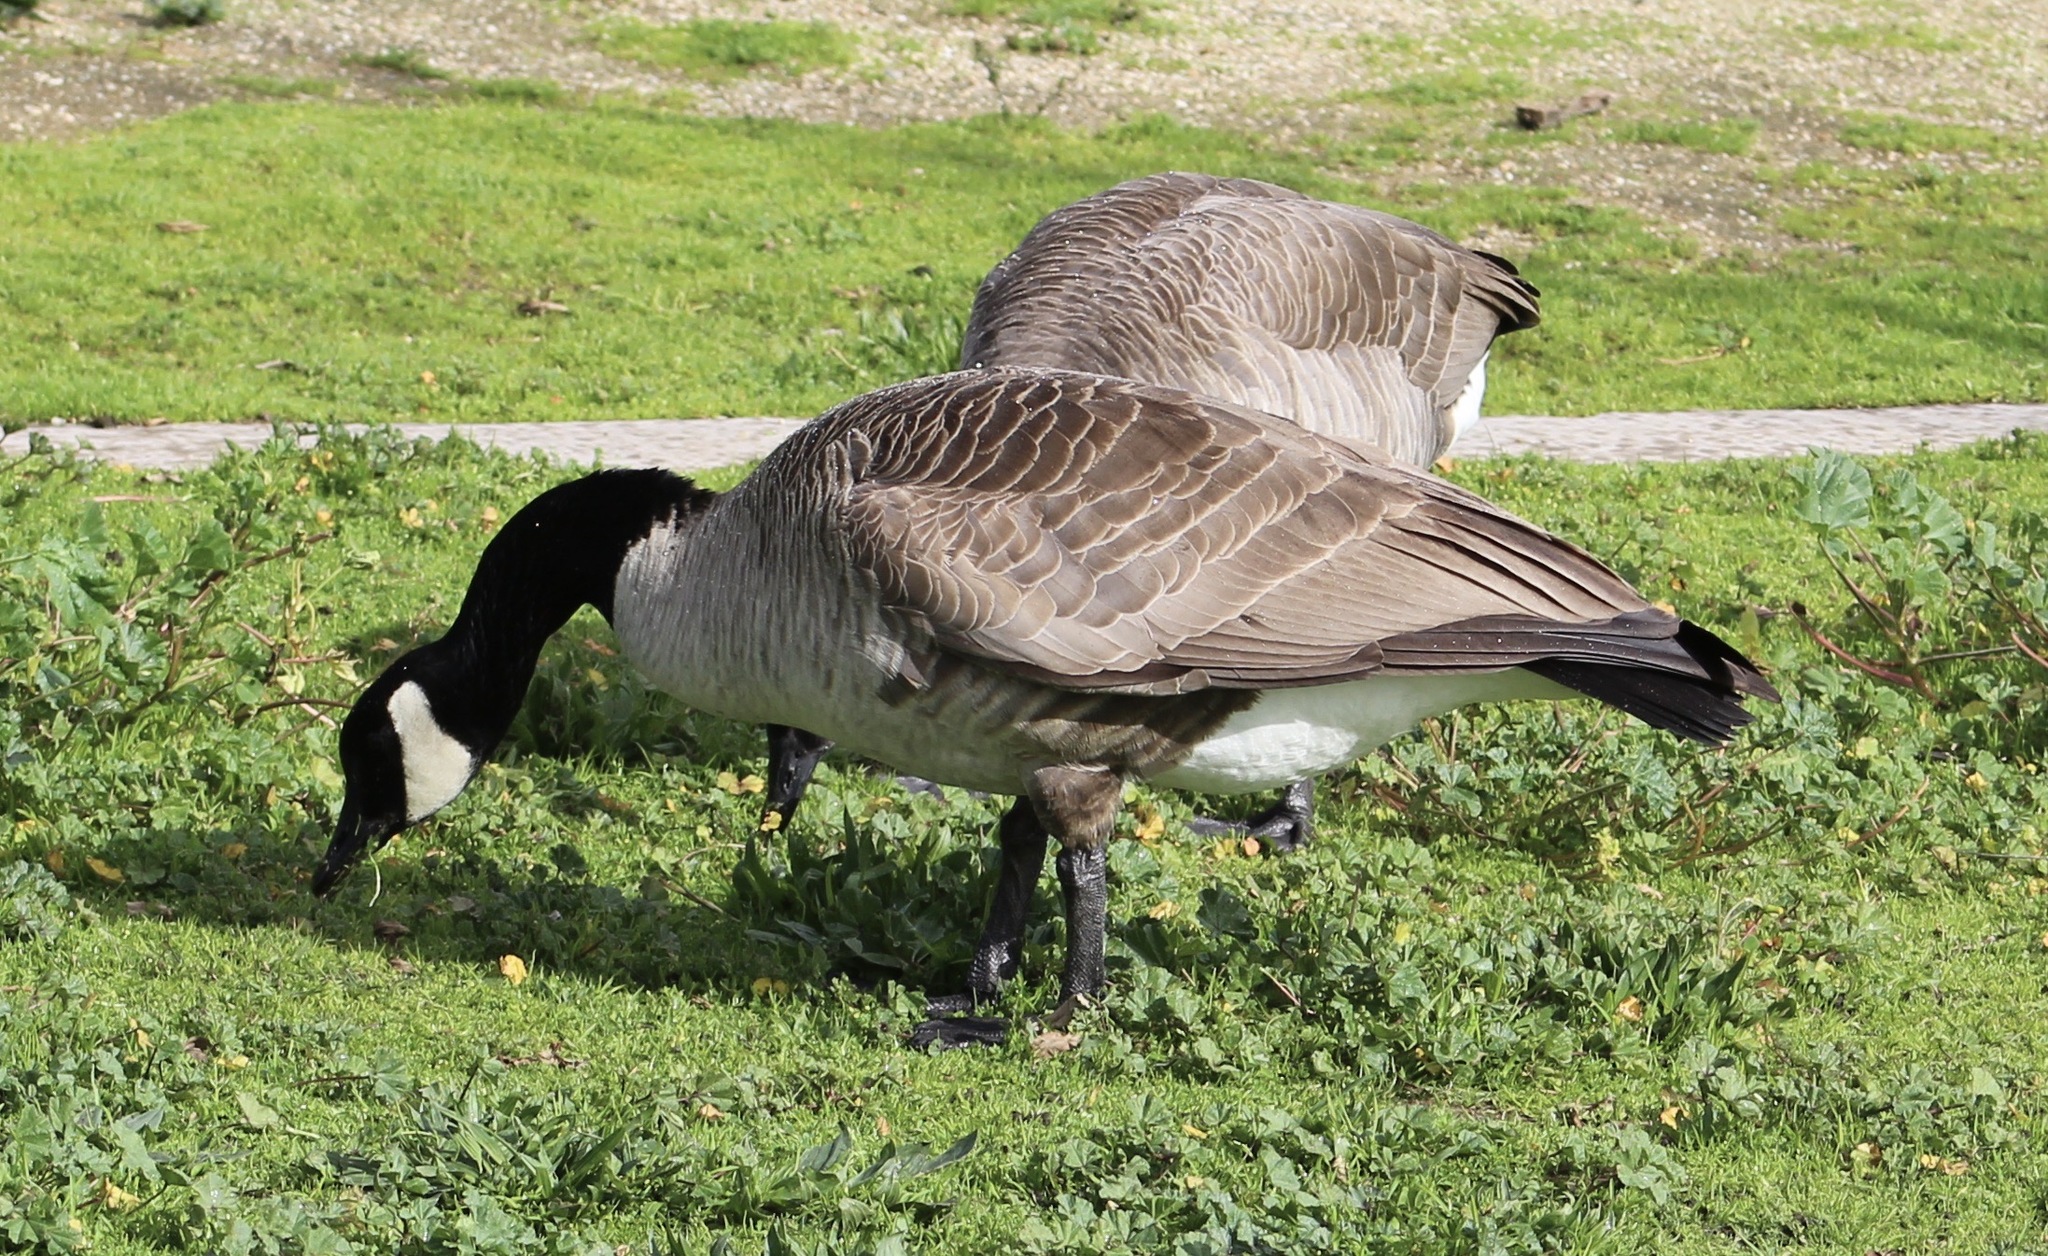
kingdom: Animalia
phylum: Chordata
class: Aves
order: Anseriformes
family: Anatidae
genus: Branta
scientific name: Branta canadensis
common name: Canada goose
